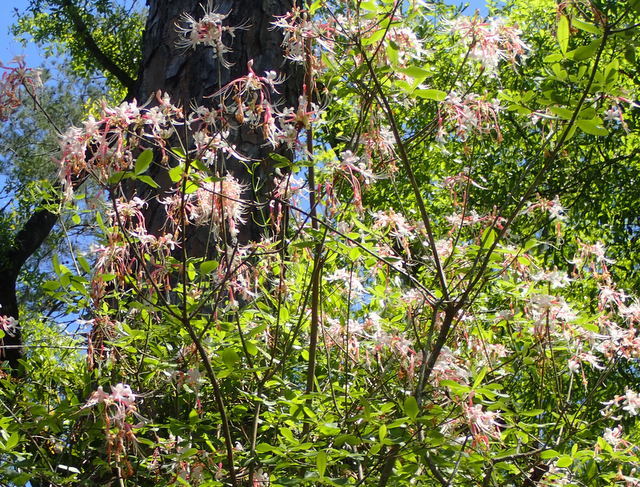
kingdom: Plantae
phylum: Tracheophyta
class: Magnoliopsida
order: Ericales
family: Ericaceae
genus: Rhododendron
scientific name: Rhododendron canescens
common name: Mountain azalea
